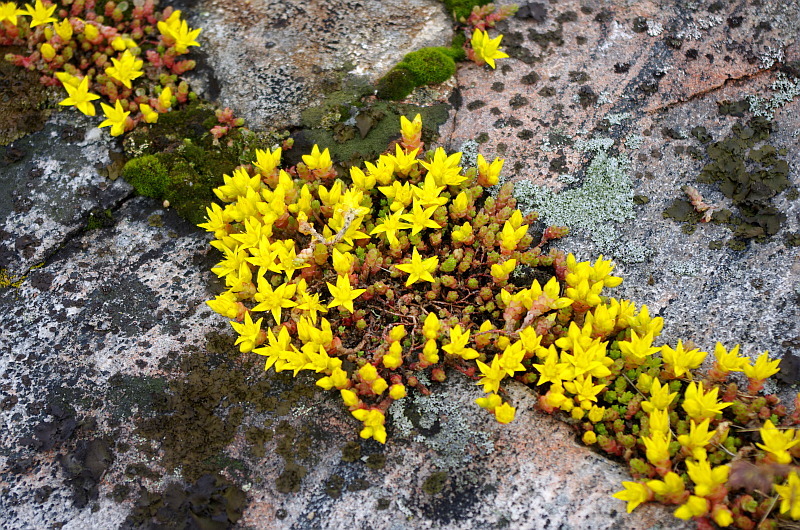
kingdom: Plantae
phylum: Tracheophyta
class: Magnoliopsida
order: Saxifragales
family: Crassulaceae
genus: Sedum
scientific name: Sedum acre
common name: Biting stonecrop
